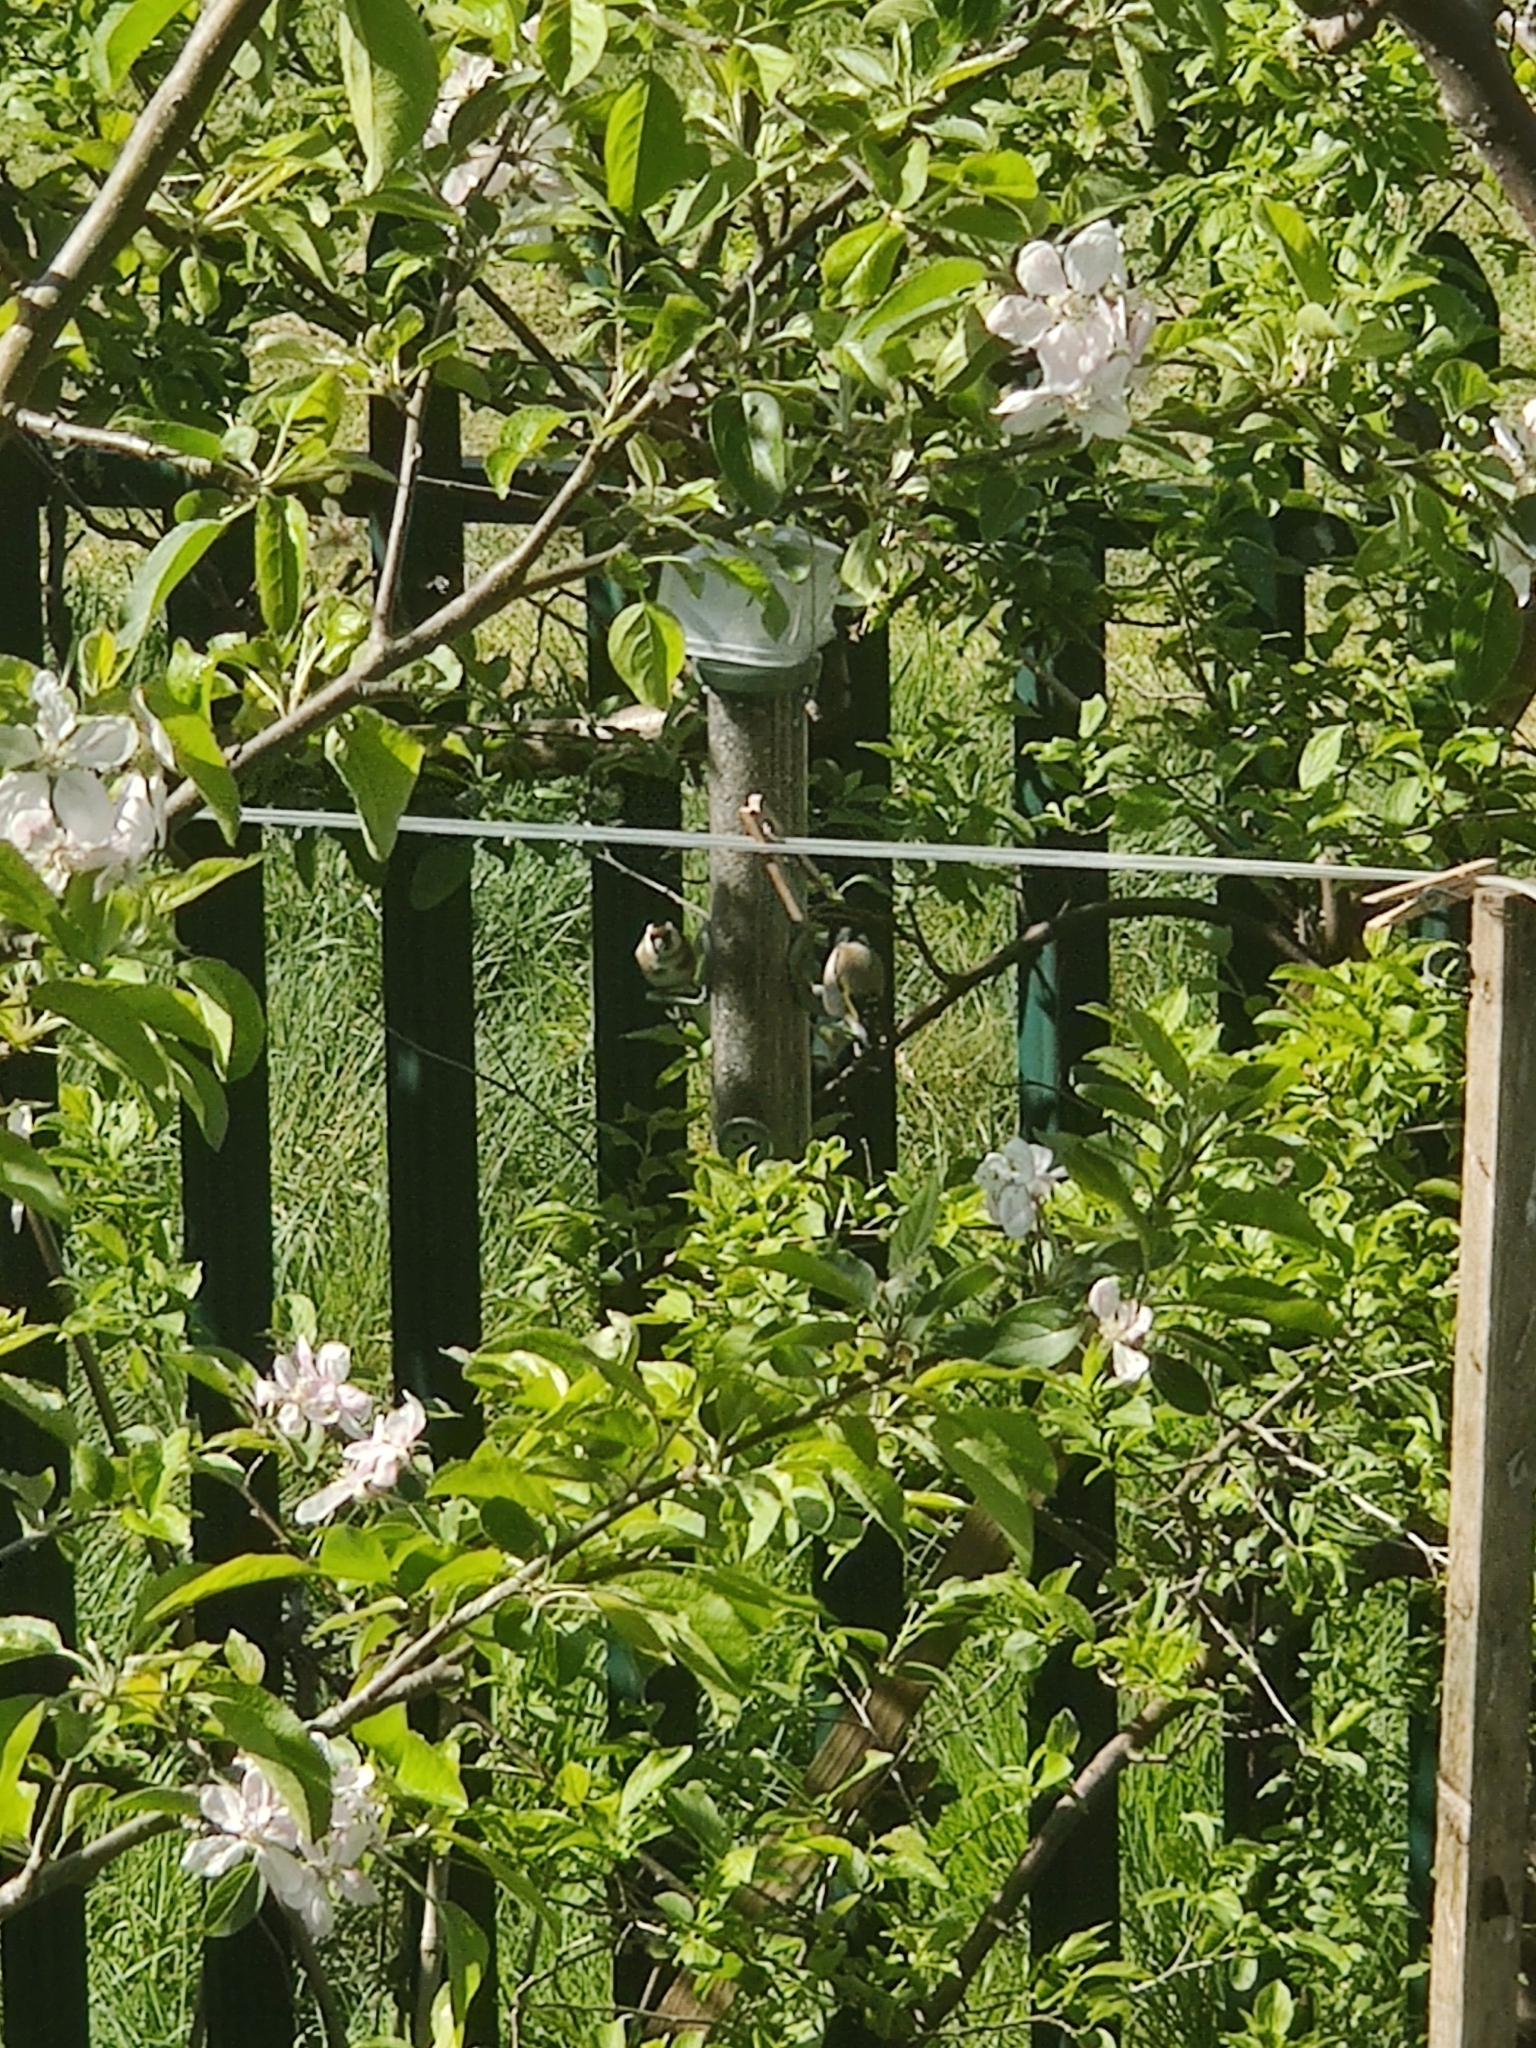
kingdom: Animalia
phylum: Chordata
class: Aves
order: Passeriformes
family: Fringillidae
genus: Carduelis
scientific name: Carduelis carduelis
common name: European goldfinch
